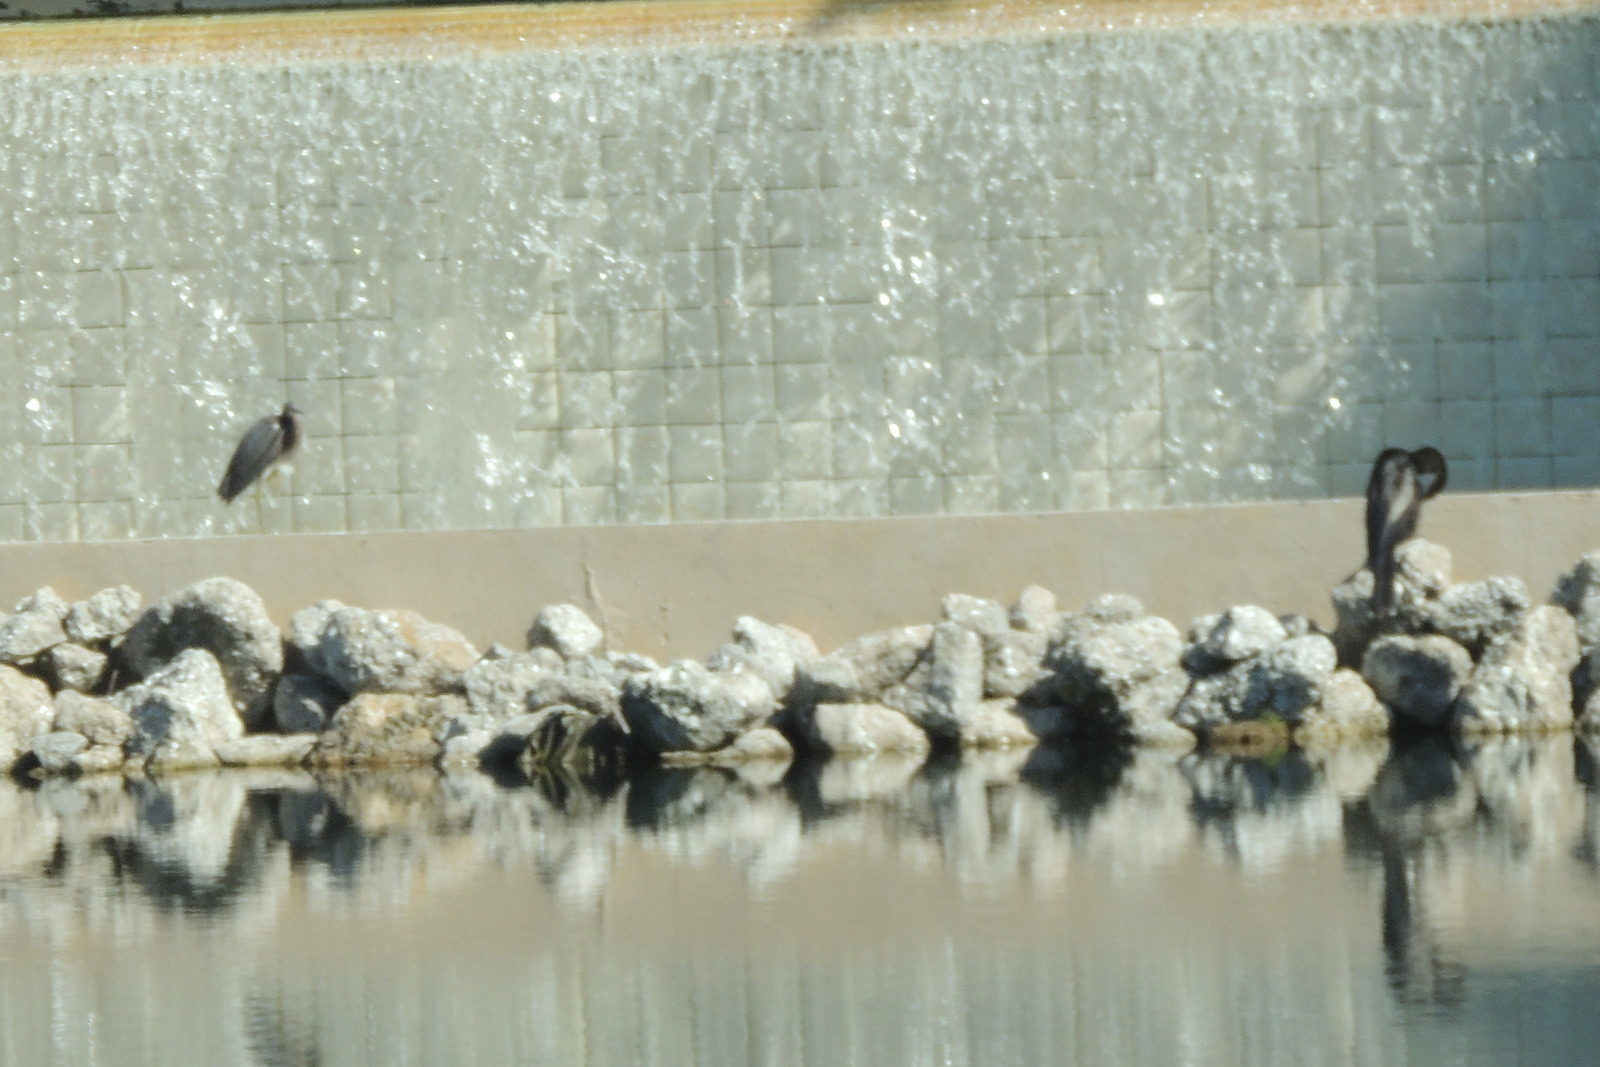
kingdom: Animalia
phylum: Chordata
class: Aves
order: Pelecaniformes
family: Ardeidae
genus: Egretta
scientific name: Egretta tricolor
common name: Tricolored heron
